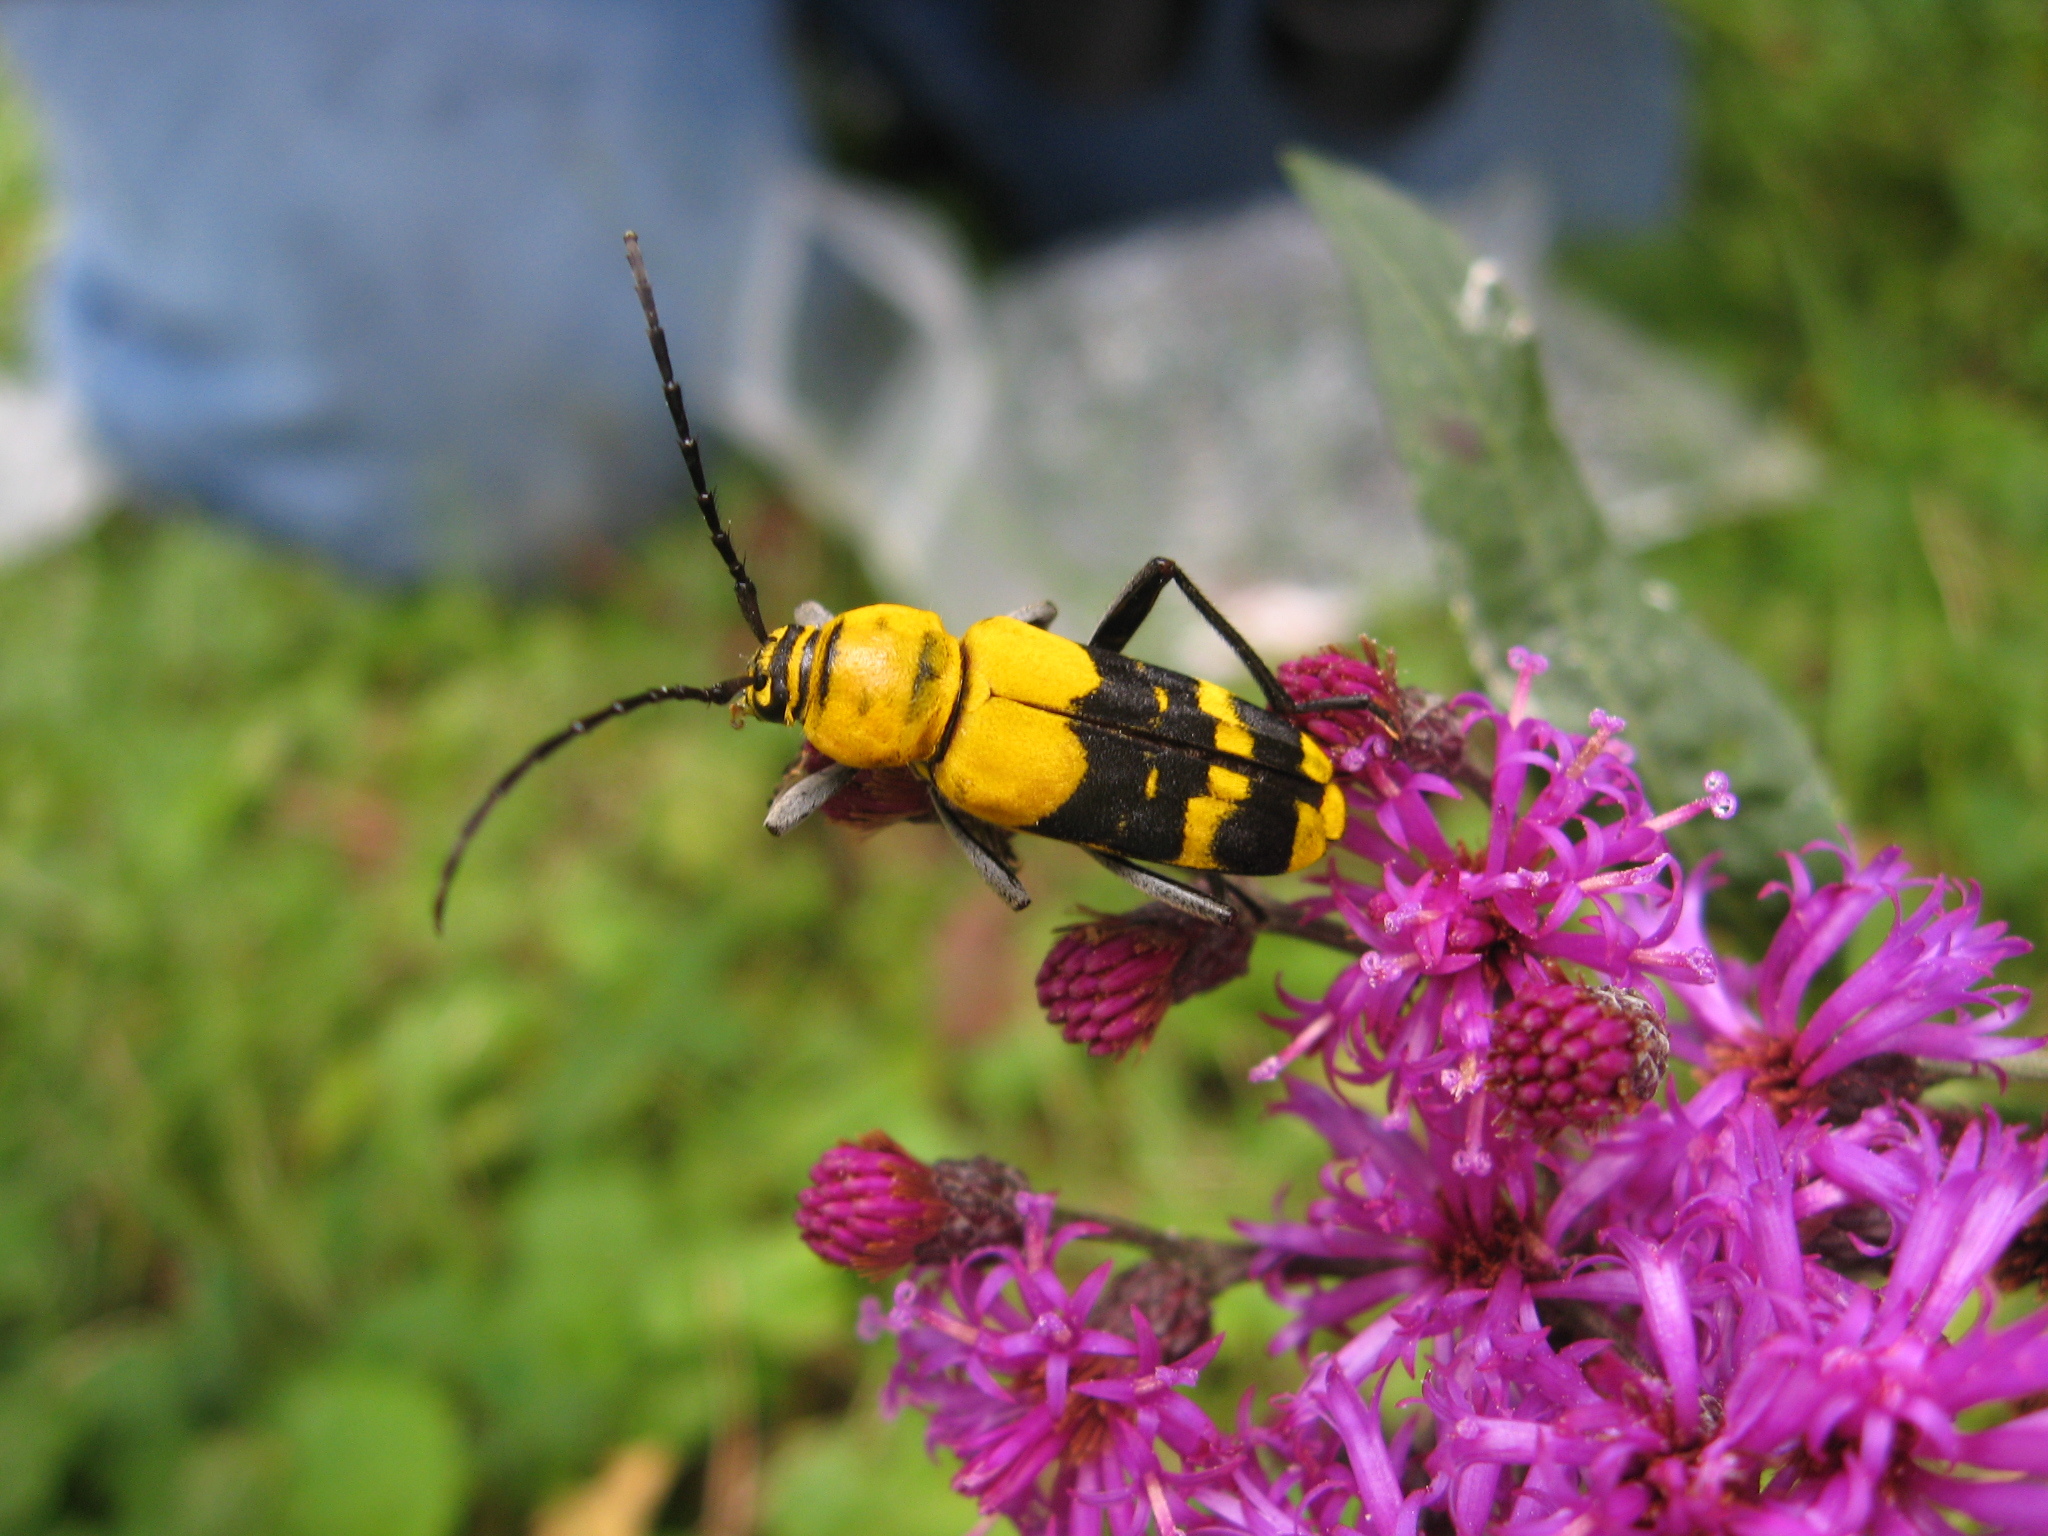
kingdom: Animalia
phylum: Arthropoda
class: Insecta
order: Coleoptera
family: Cerambycidae
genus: Megacyllene
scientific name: Megacyllene decora
